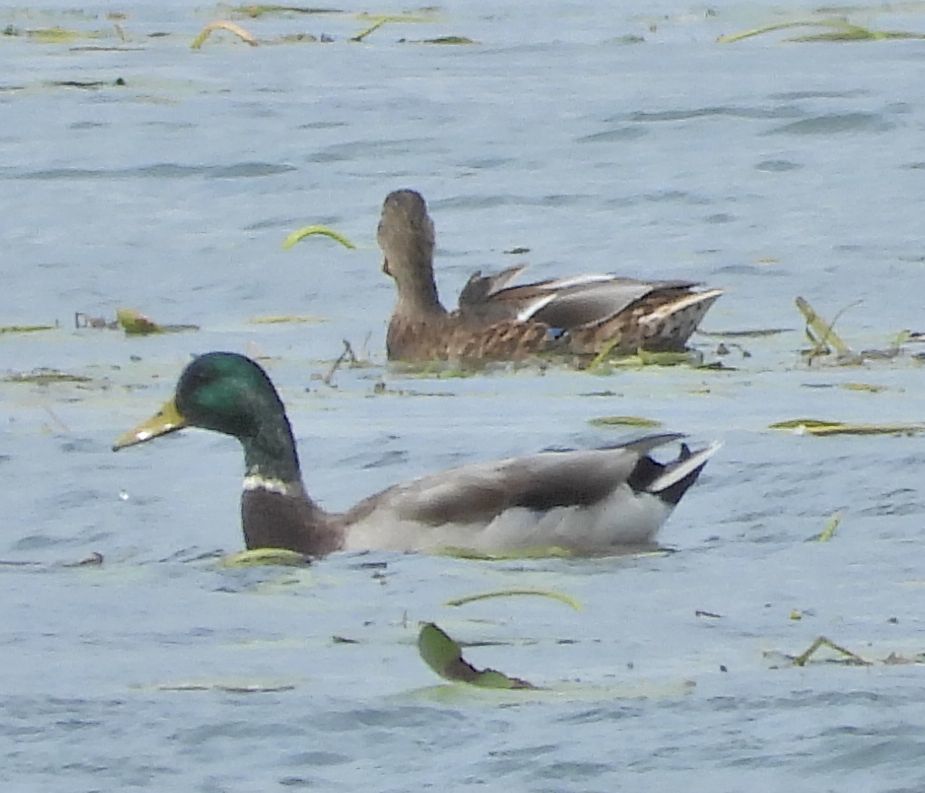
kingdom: Animalia
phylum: Chordata
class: Aves
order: Anseriformes
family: Anatidae
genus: Anas
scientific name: Anas platyrhynchos
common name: Mallard
